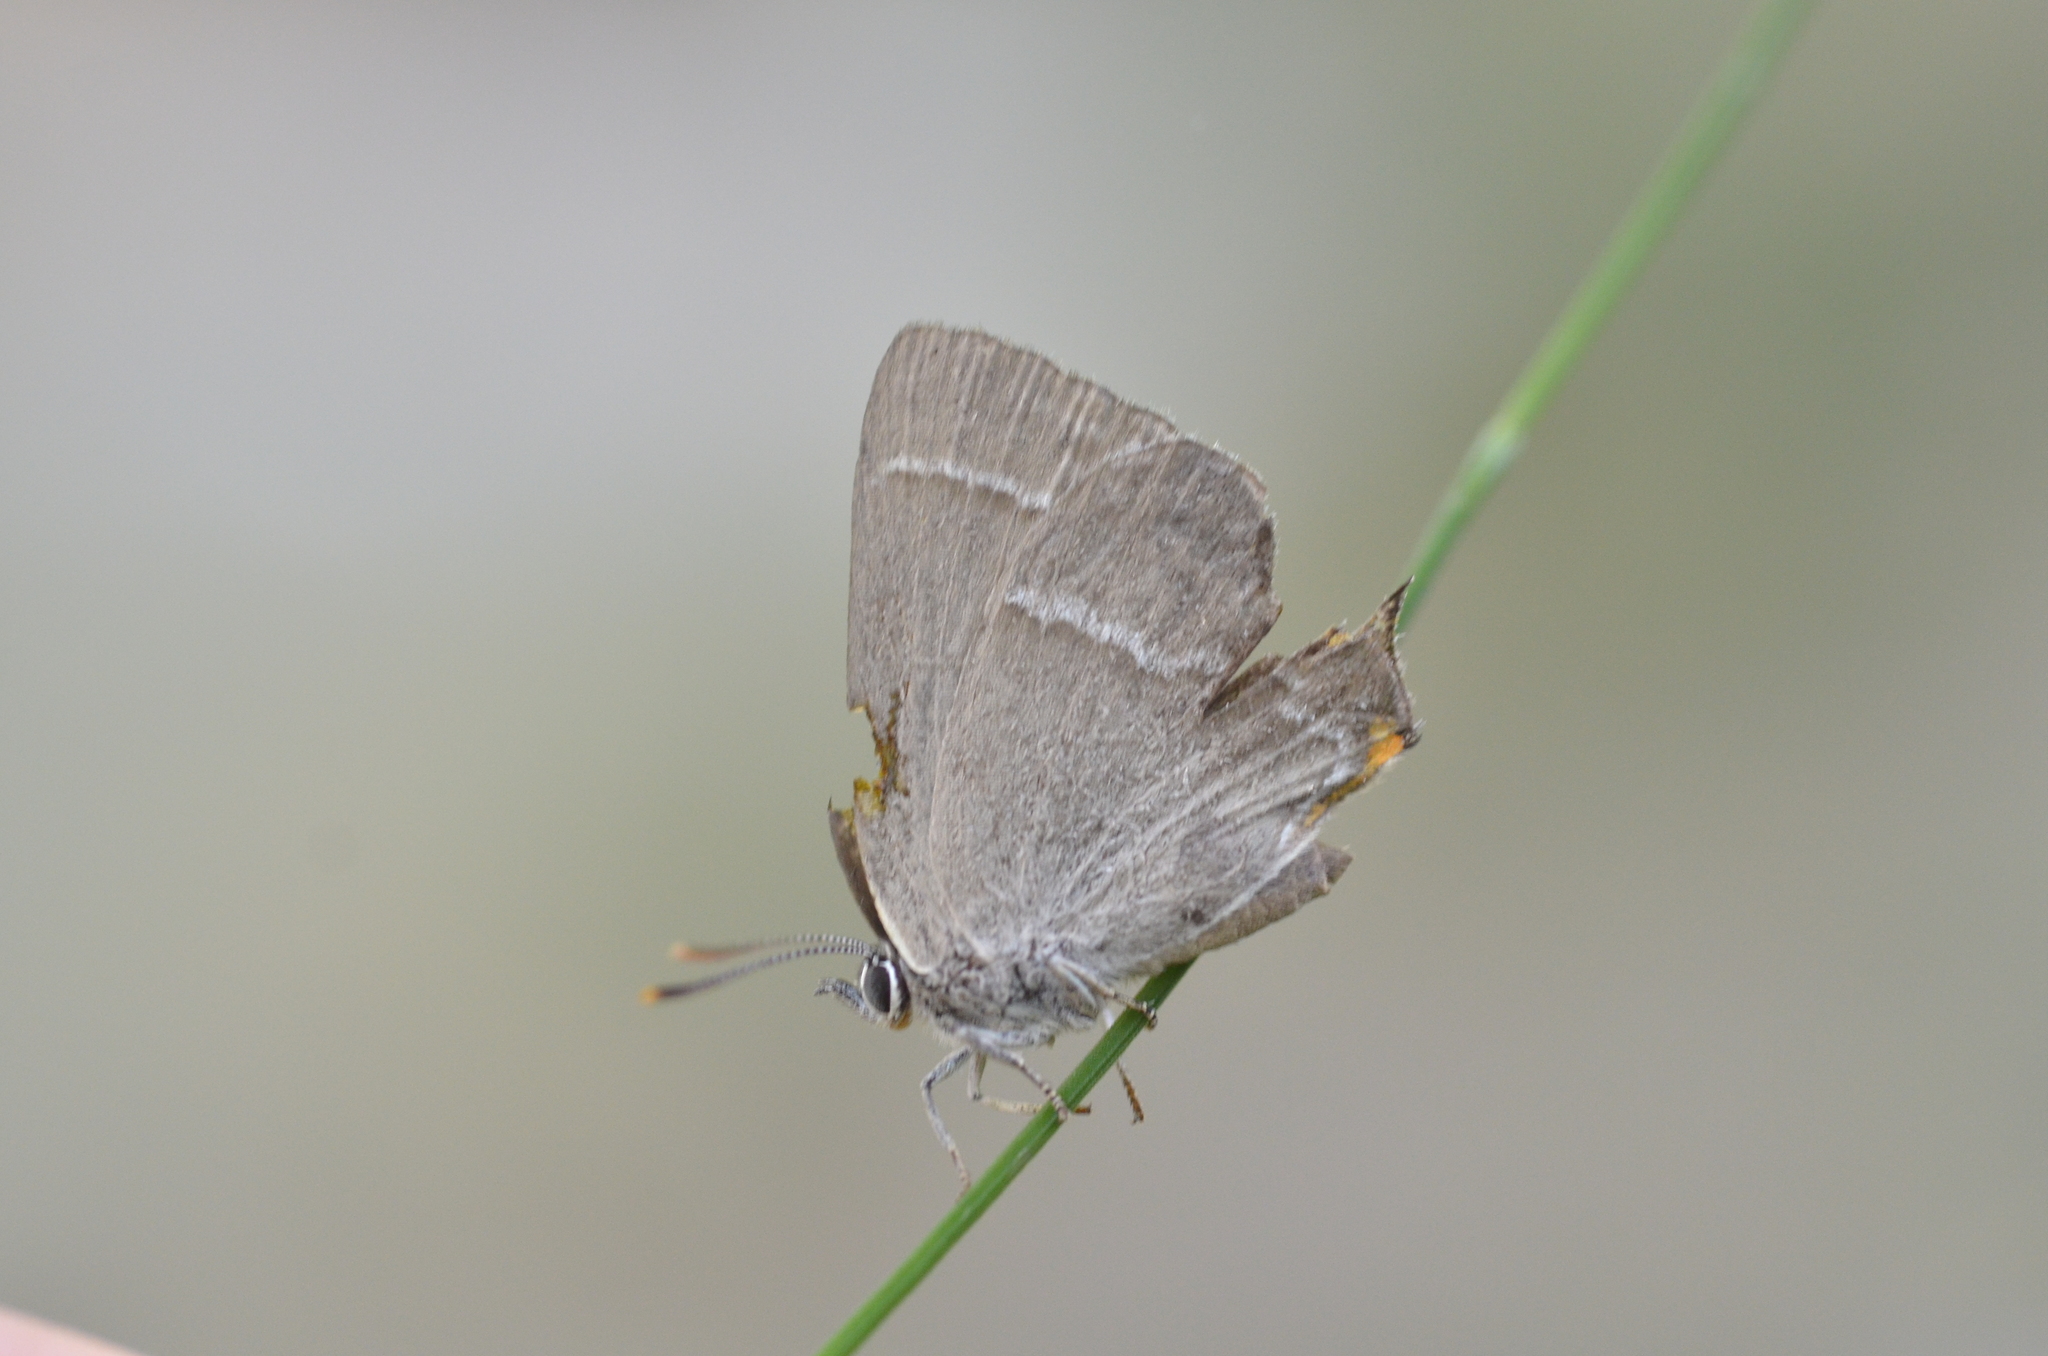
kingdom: Animalia
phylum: Arthropoda
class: Insecta
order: Lepidoptera
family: Lycaenidae
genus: Quercusia
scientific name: Quercusia quercus
